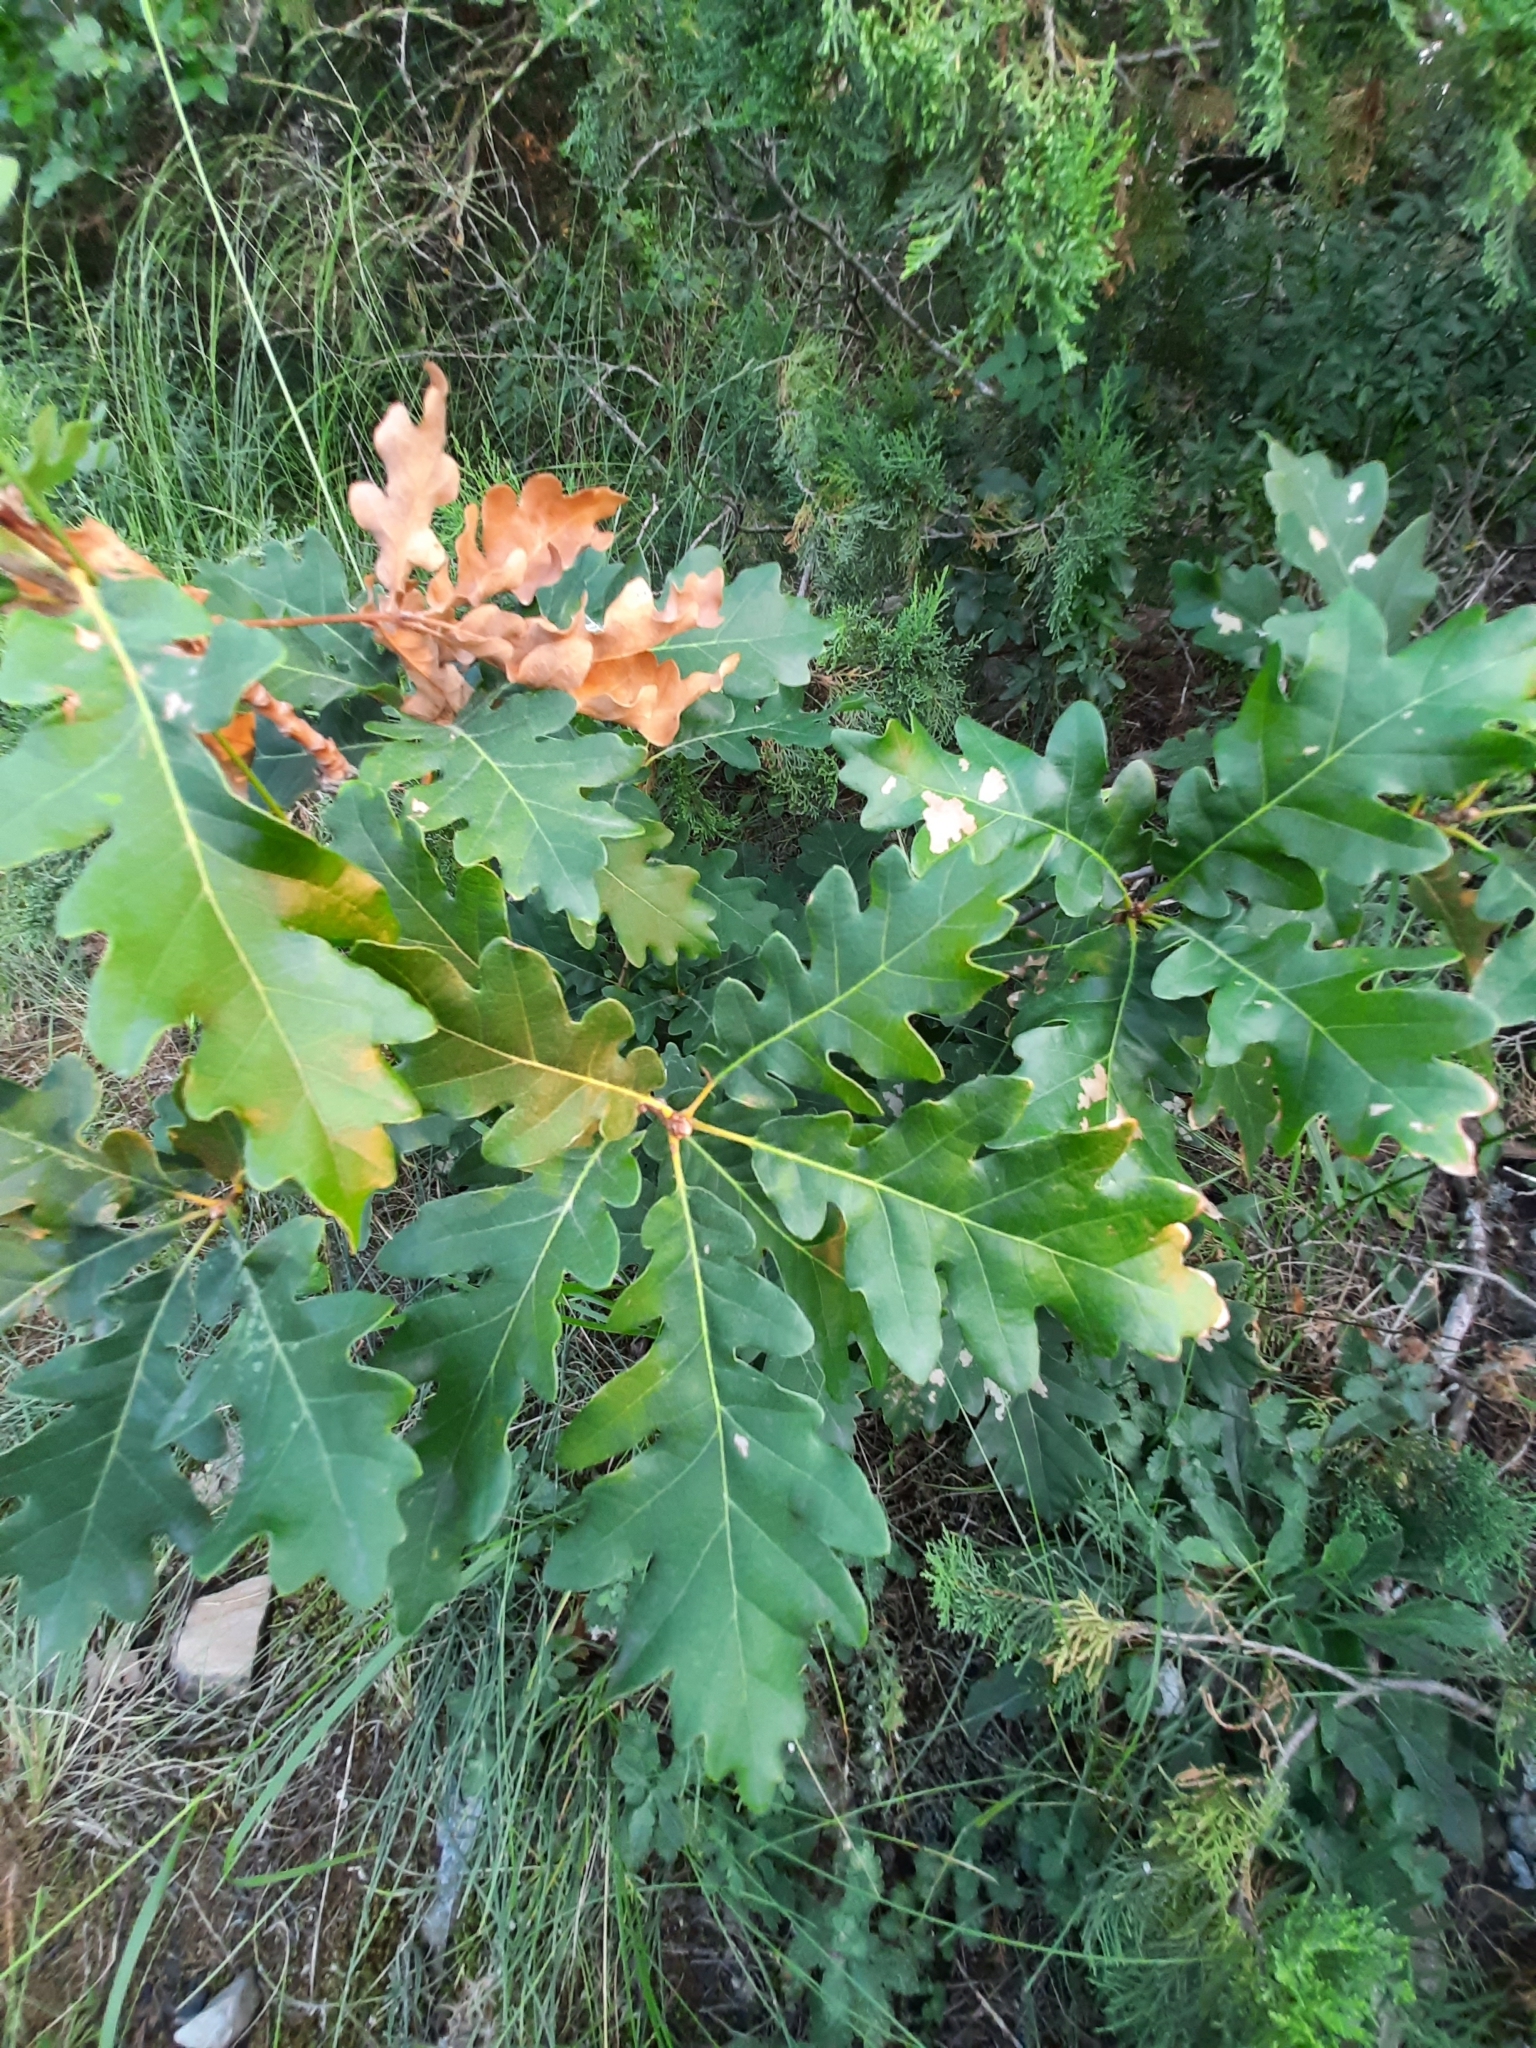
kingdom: Plantae
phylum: Tracheophyta
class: Magnoliopsida
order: Fagales
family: Fagaceae
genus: Quercus
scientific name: Quercus pubescens
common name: Downy oak
